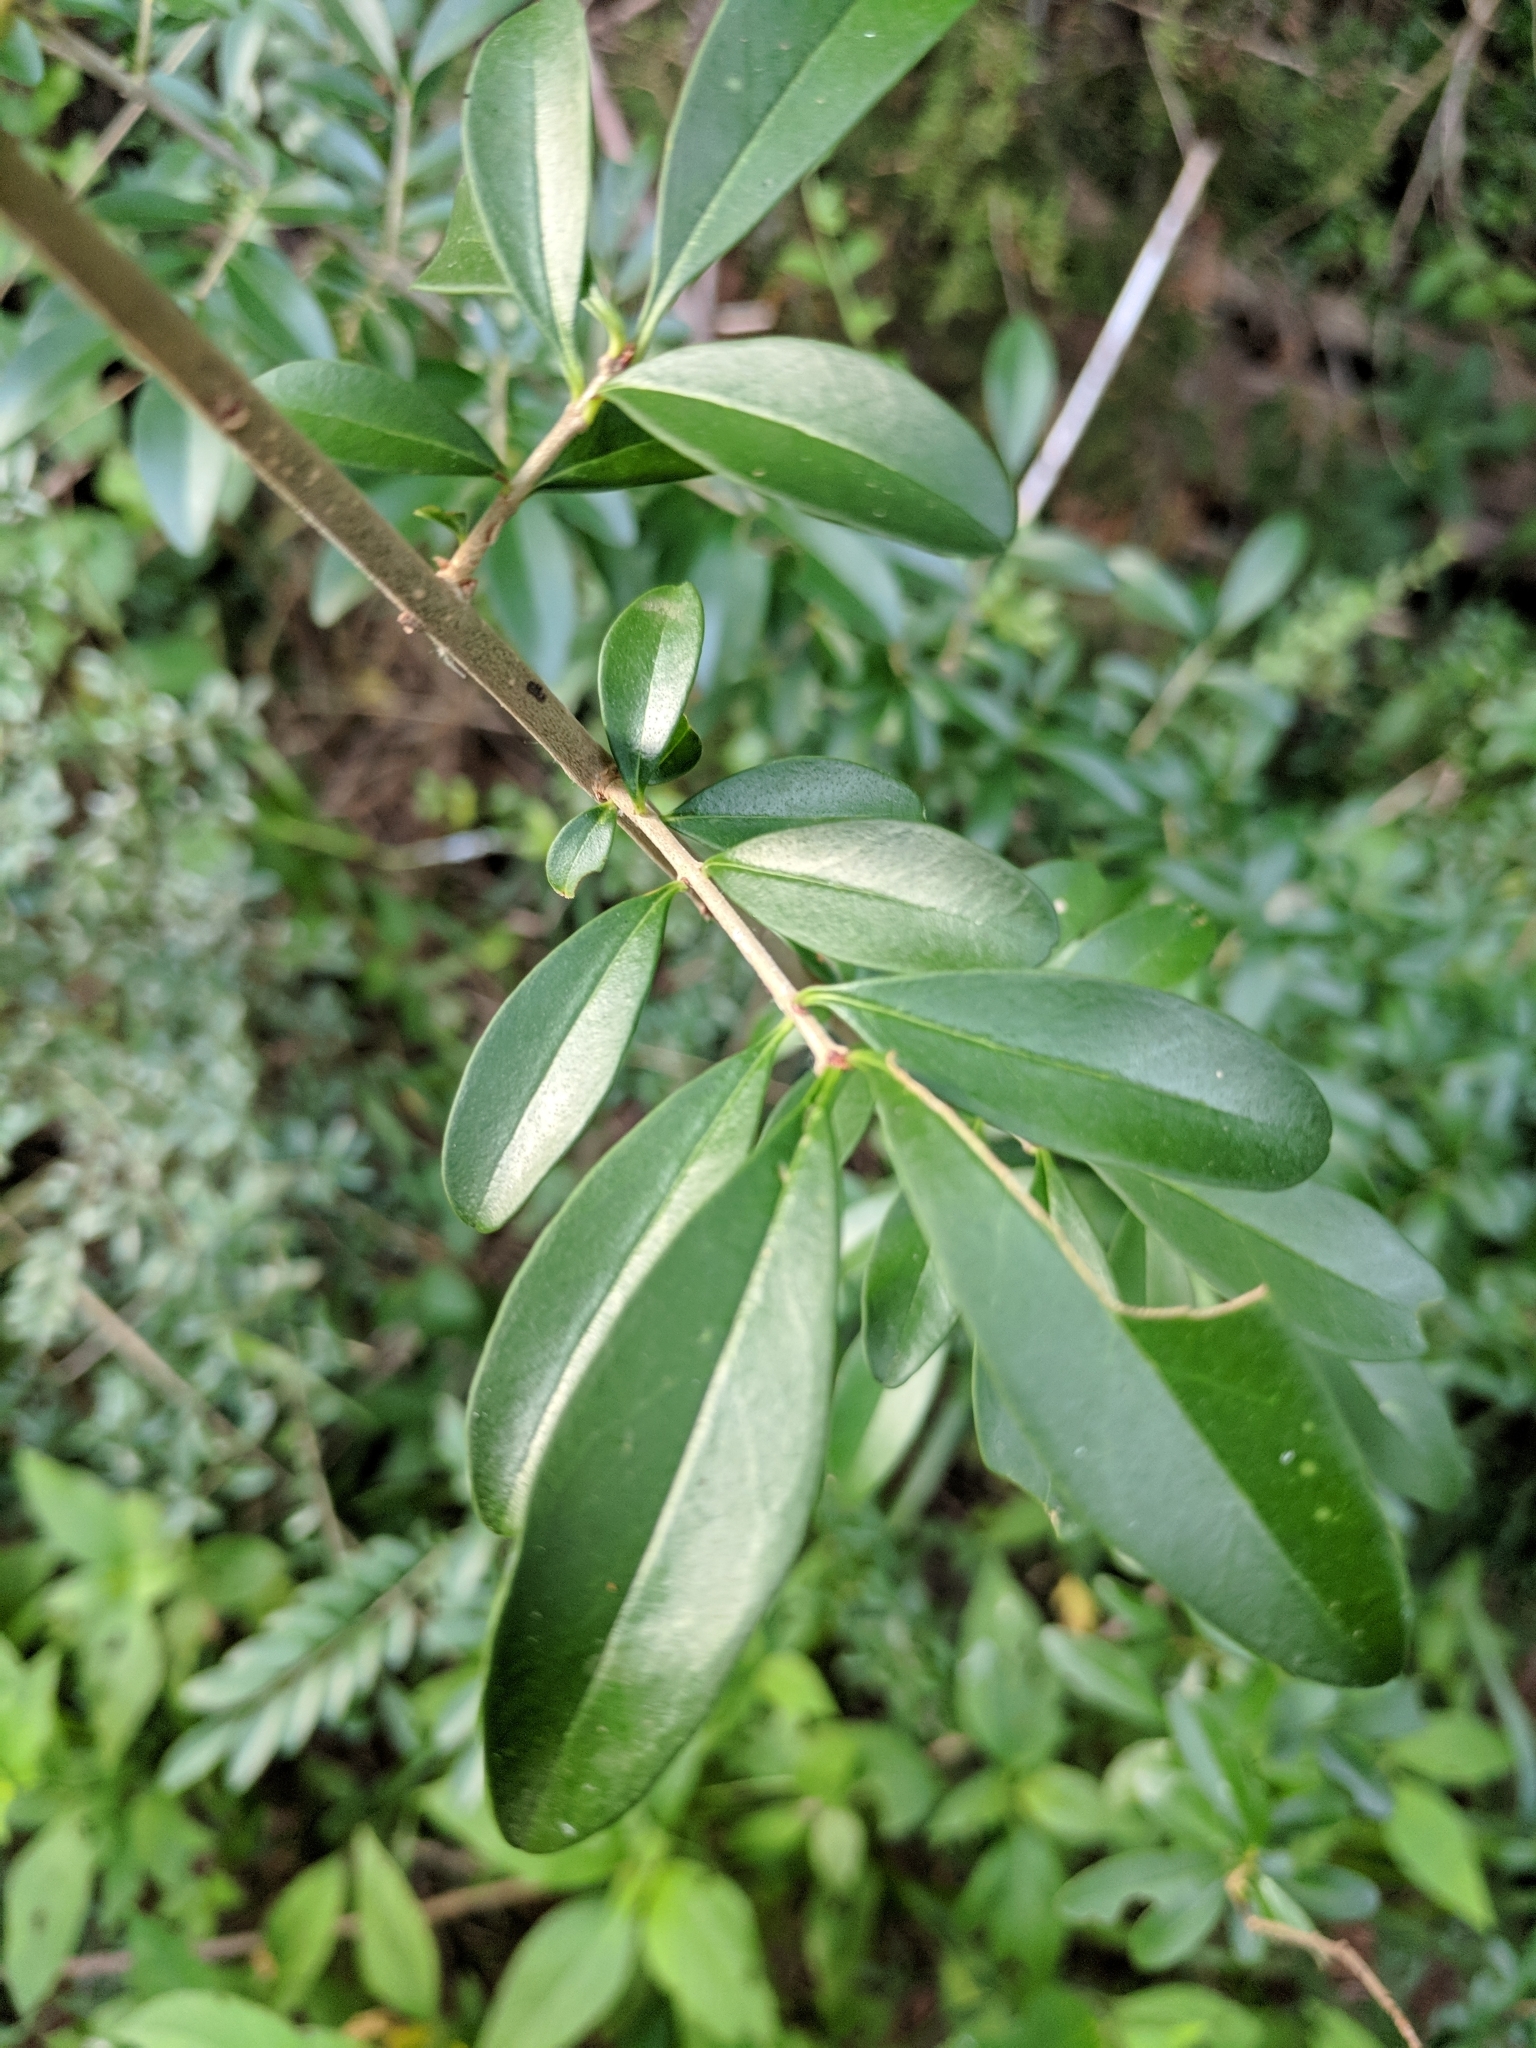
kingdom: Plantae
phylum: Tracheophyta
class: Magnoliopsida
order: Lamiales
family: Oleaceae
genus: Ligustrum
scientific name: Ligustrum quihoui
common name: Waxyleaf privet
